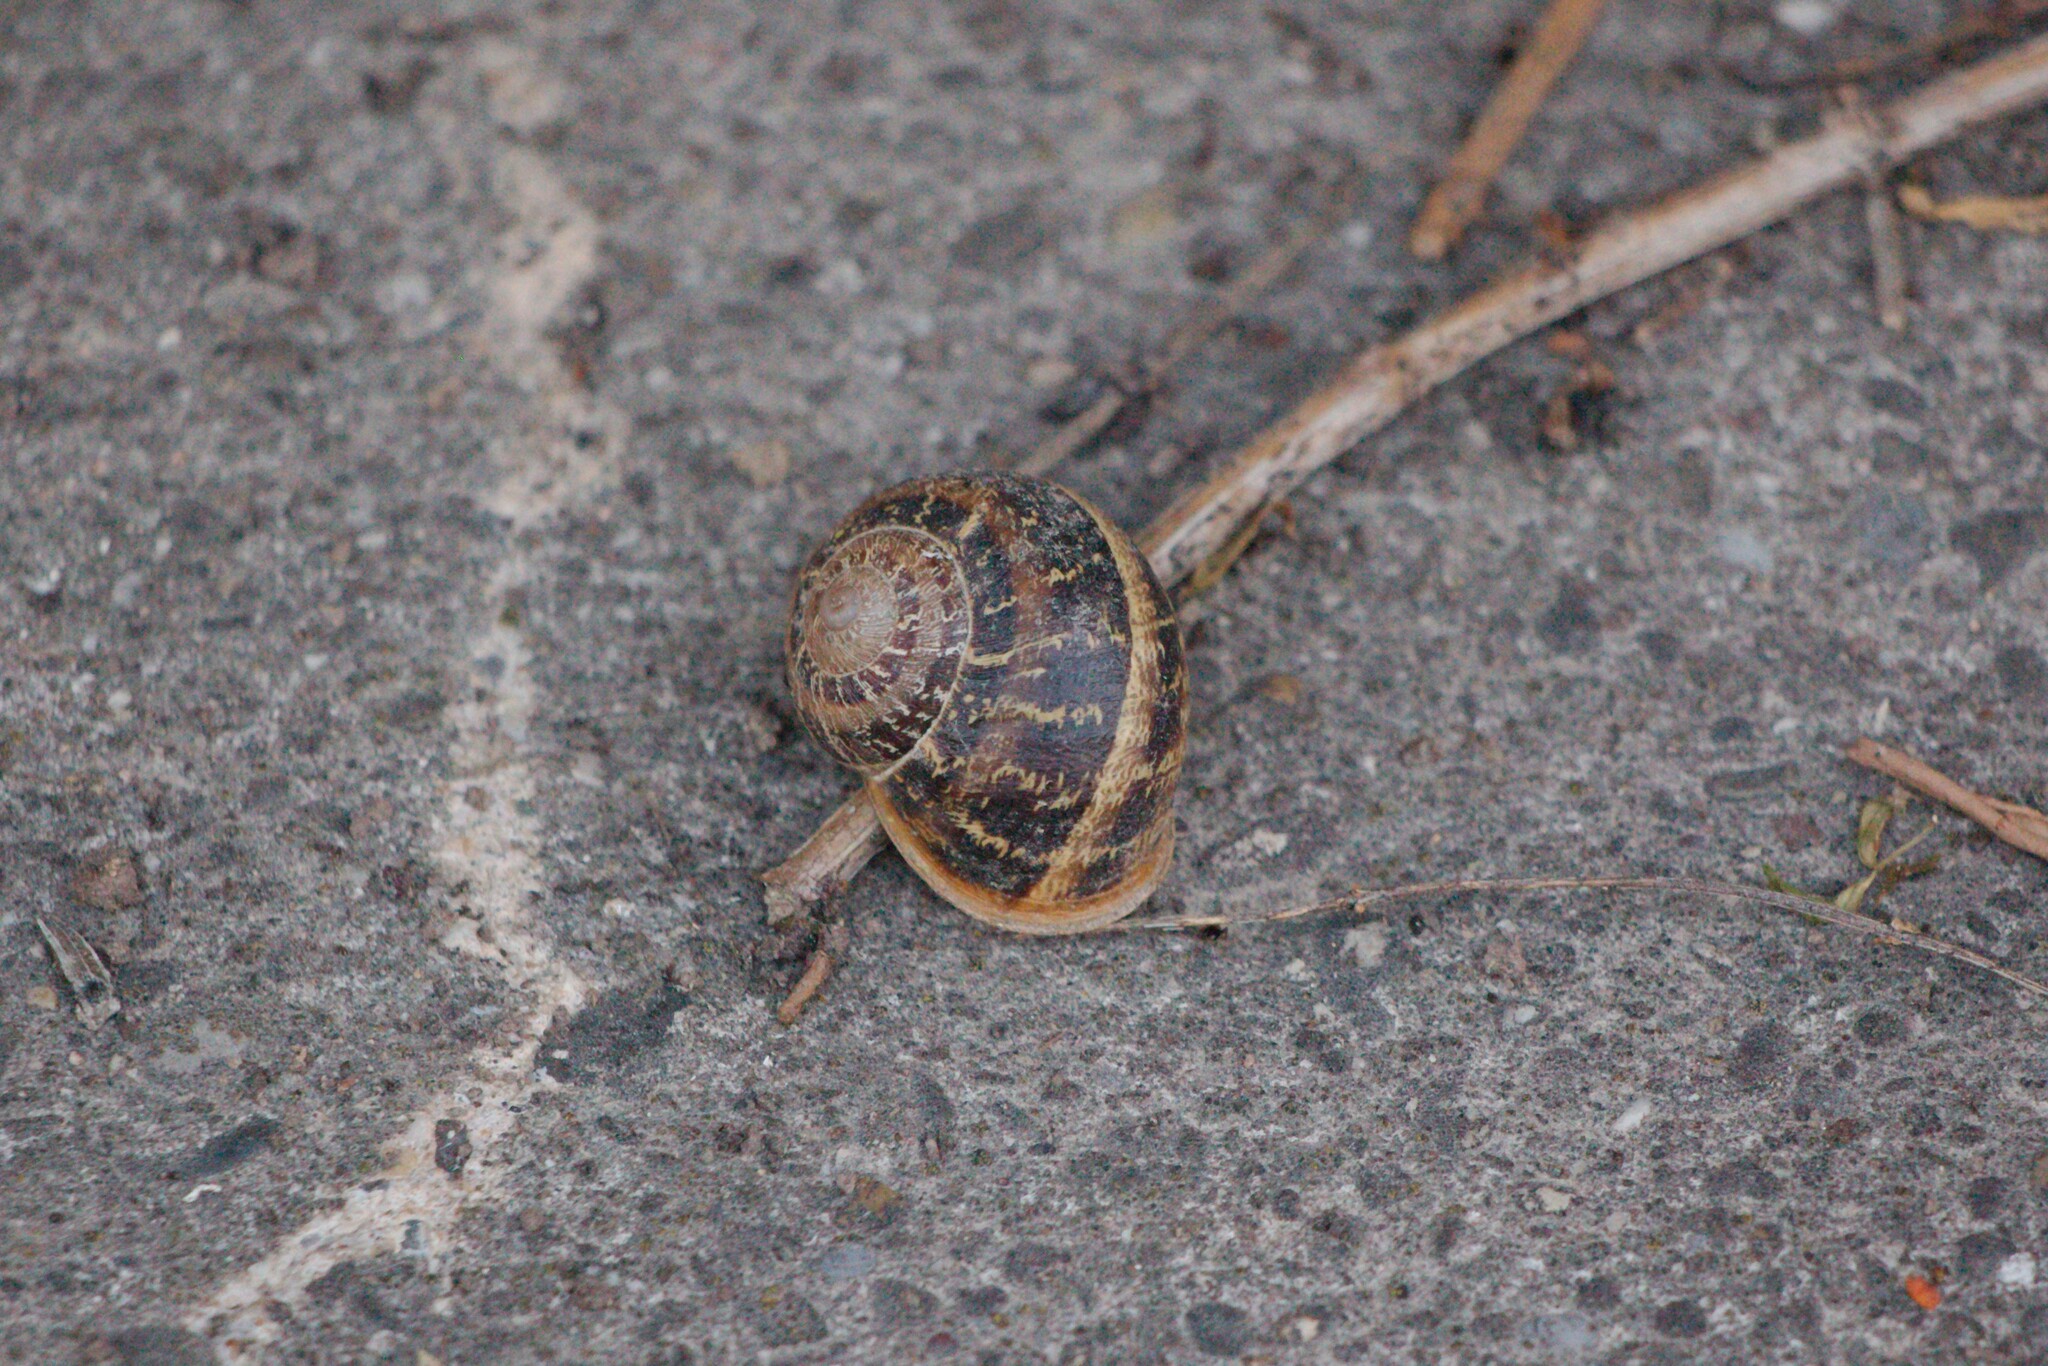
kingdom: Animalia
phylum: Mollusca
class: Gastropoda
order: Stylommatophora
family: Helicidae
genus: Cornu
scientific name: Cornu aspersum
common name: Brown garden snail
